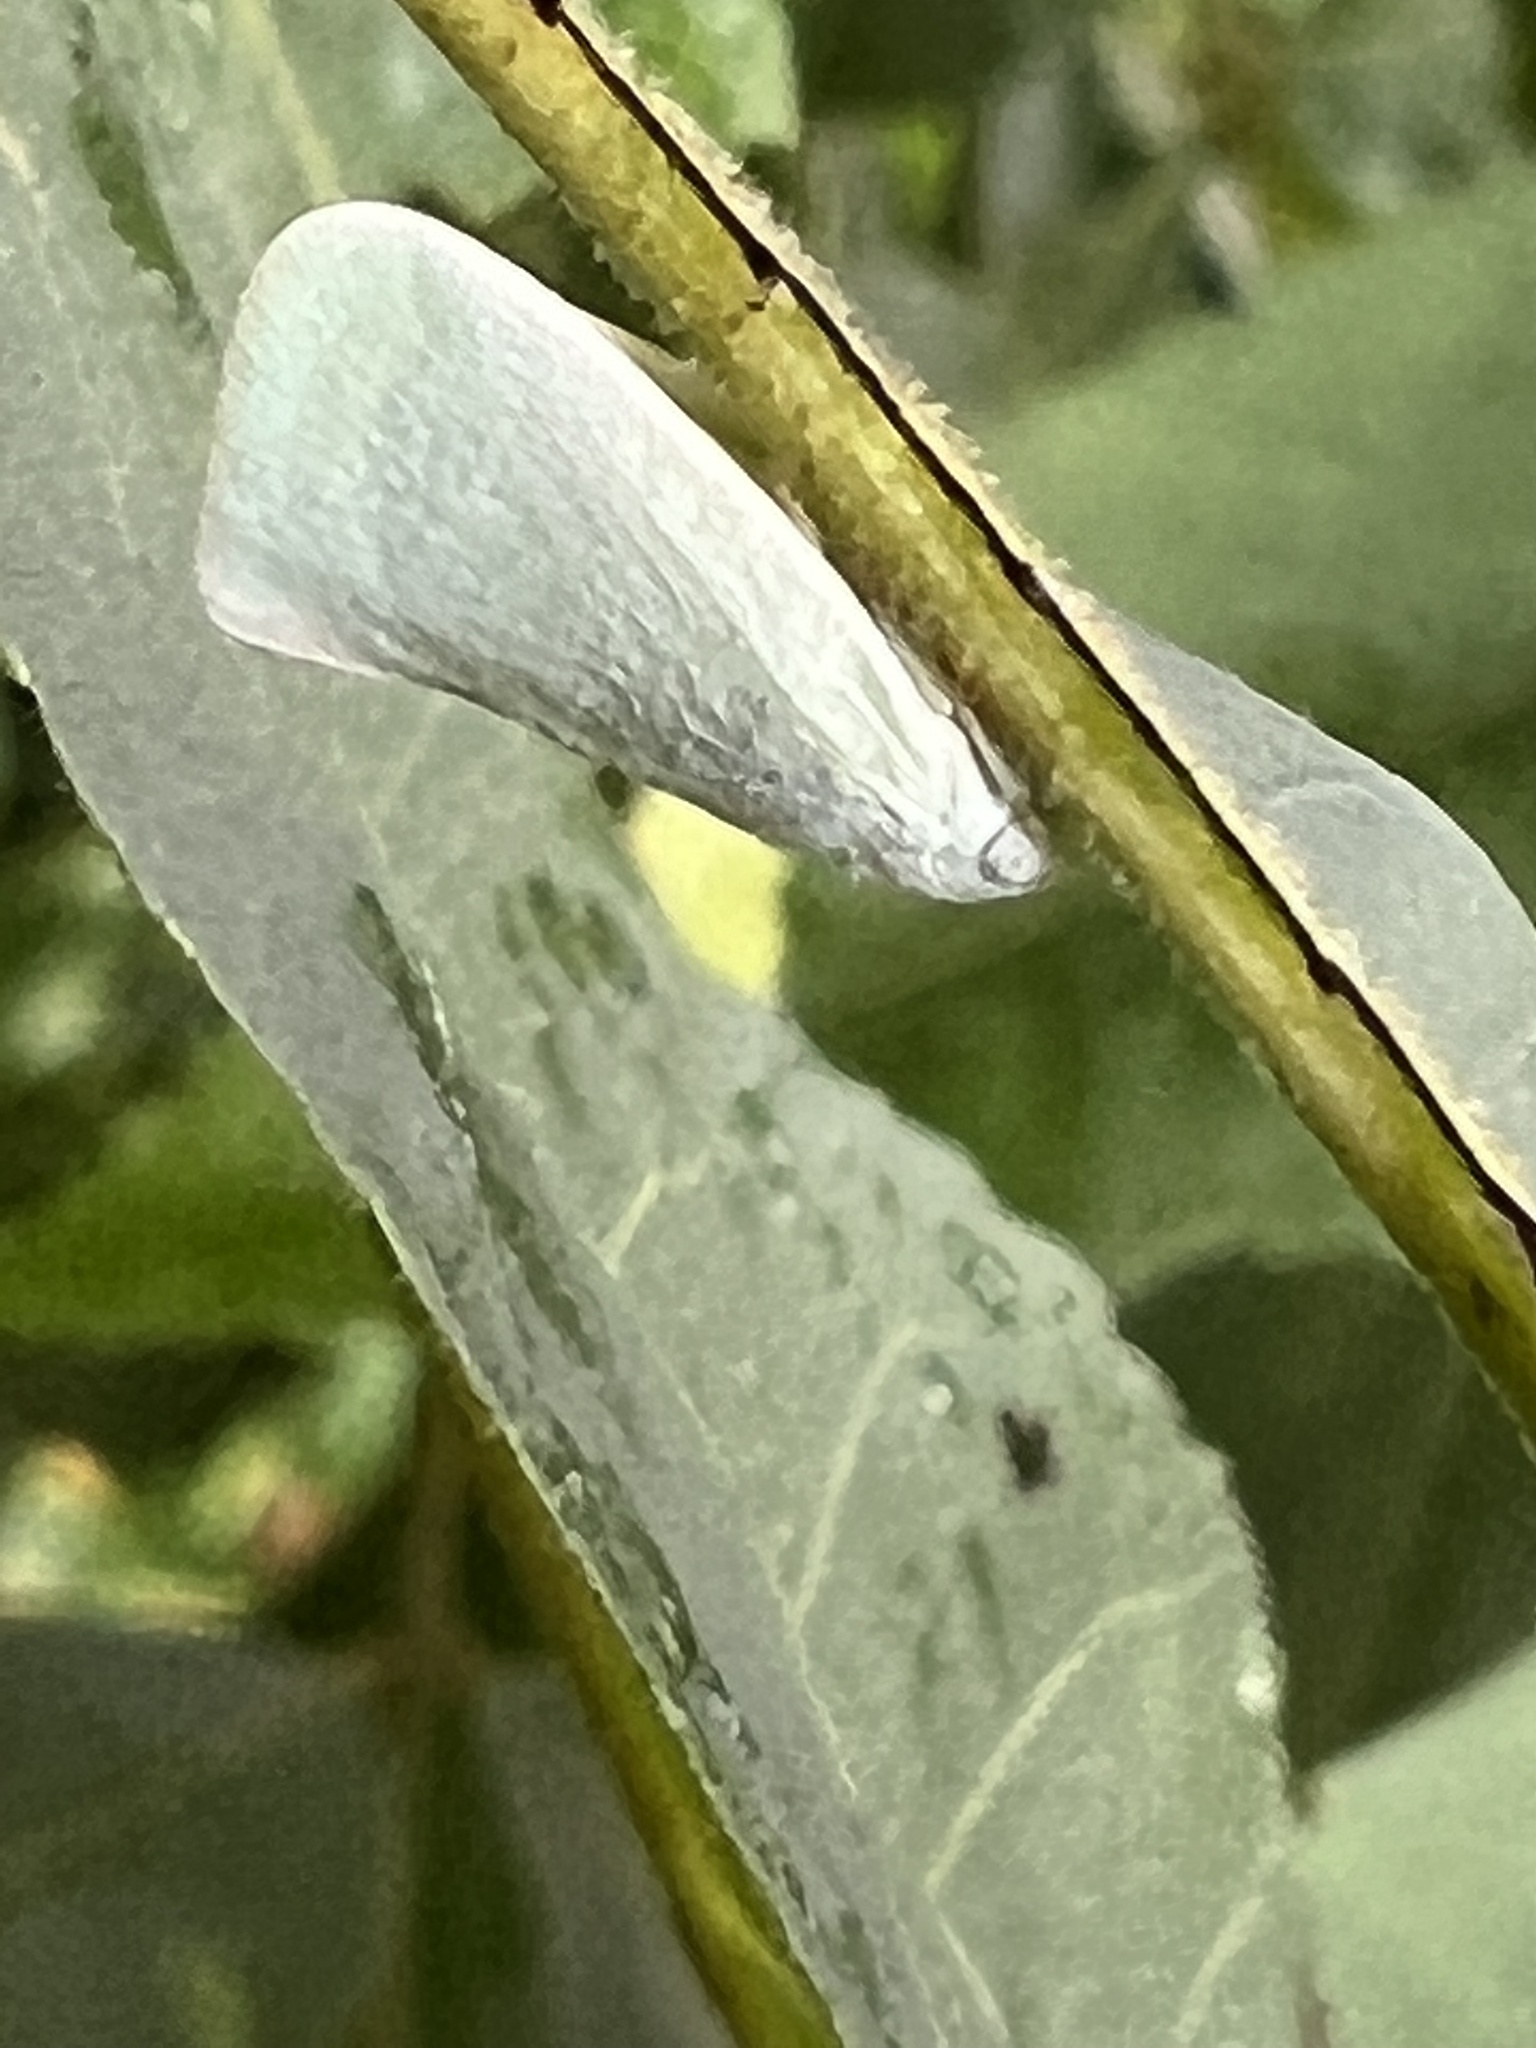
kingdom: Animalia
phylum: Arthropoda
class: Insecta
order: Hemiptera
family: Flatidae
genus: Flatormenis
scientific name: Flatormenis proxima
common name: Northern flatid planthopper
